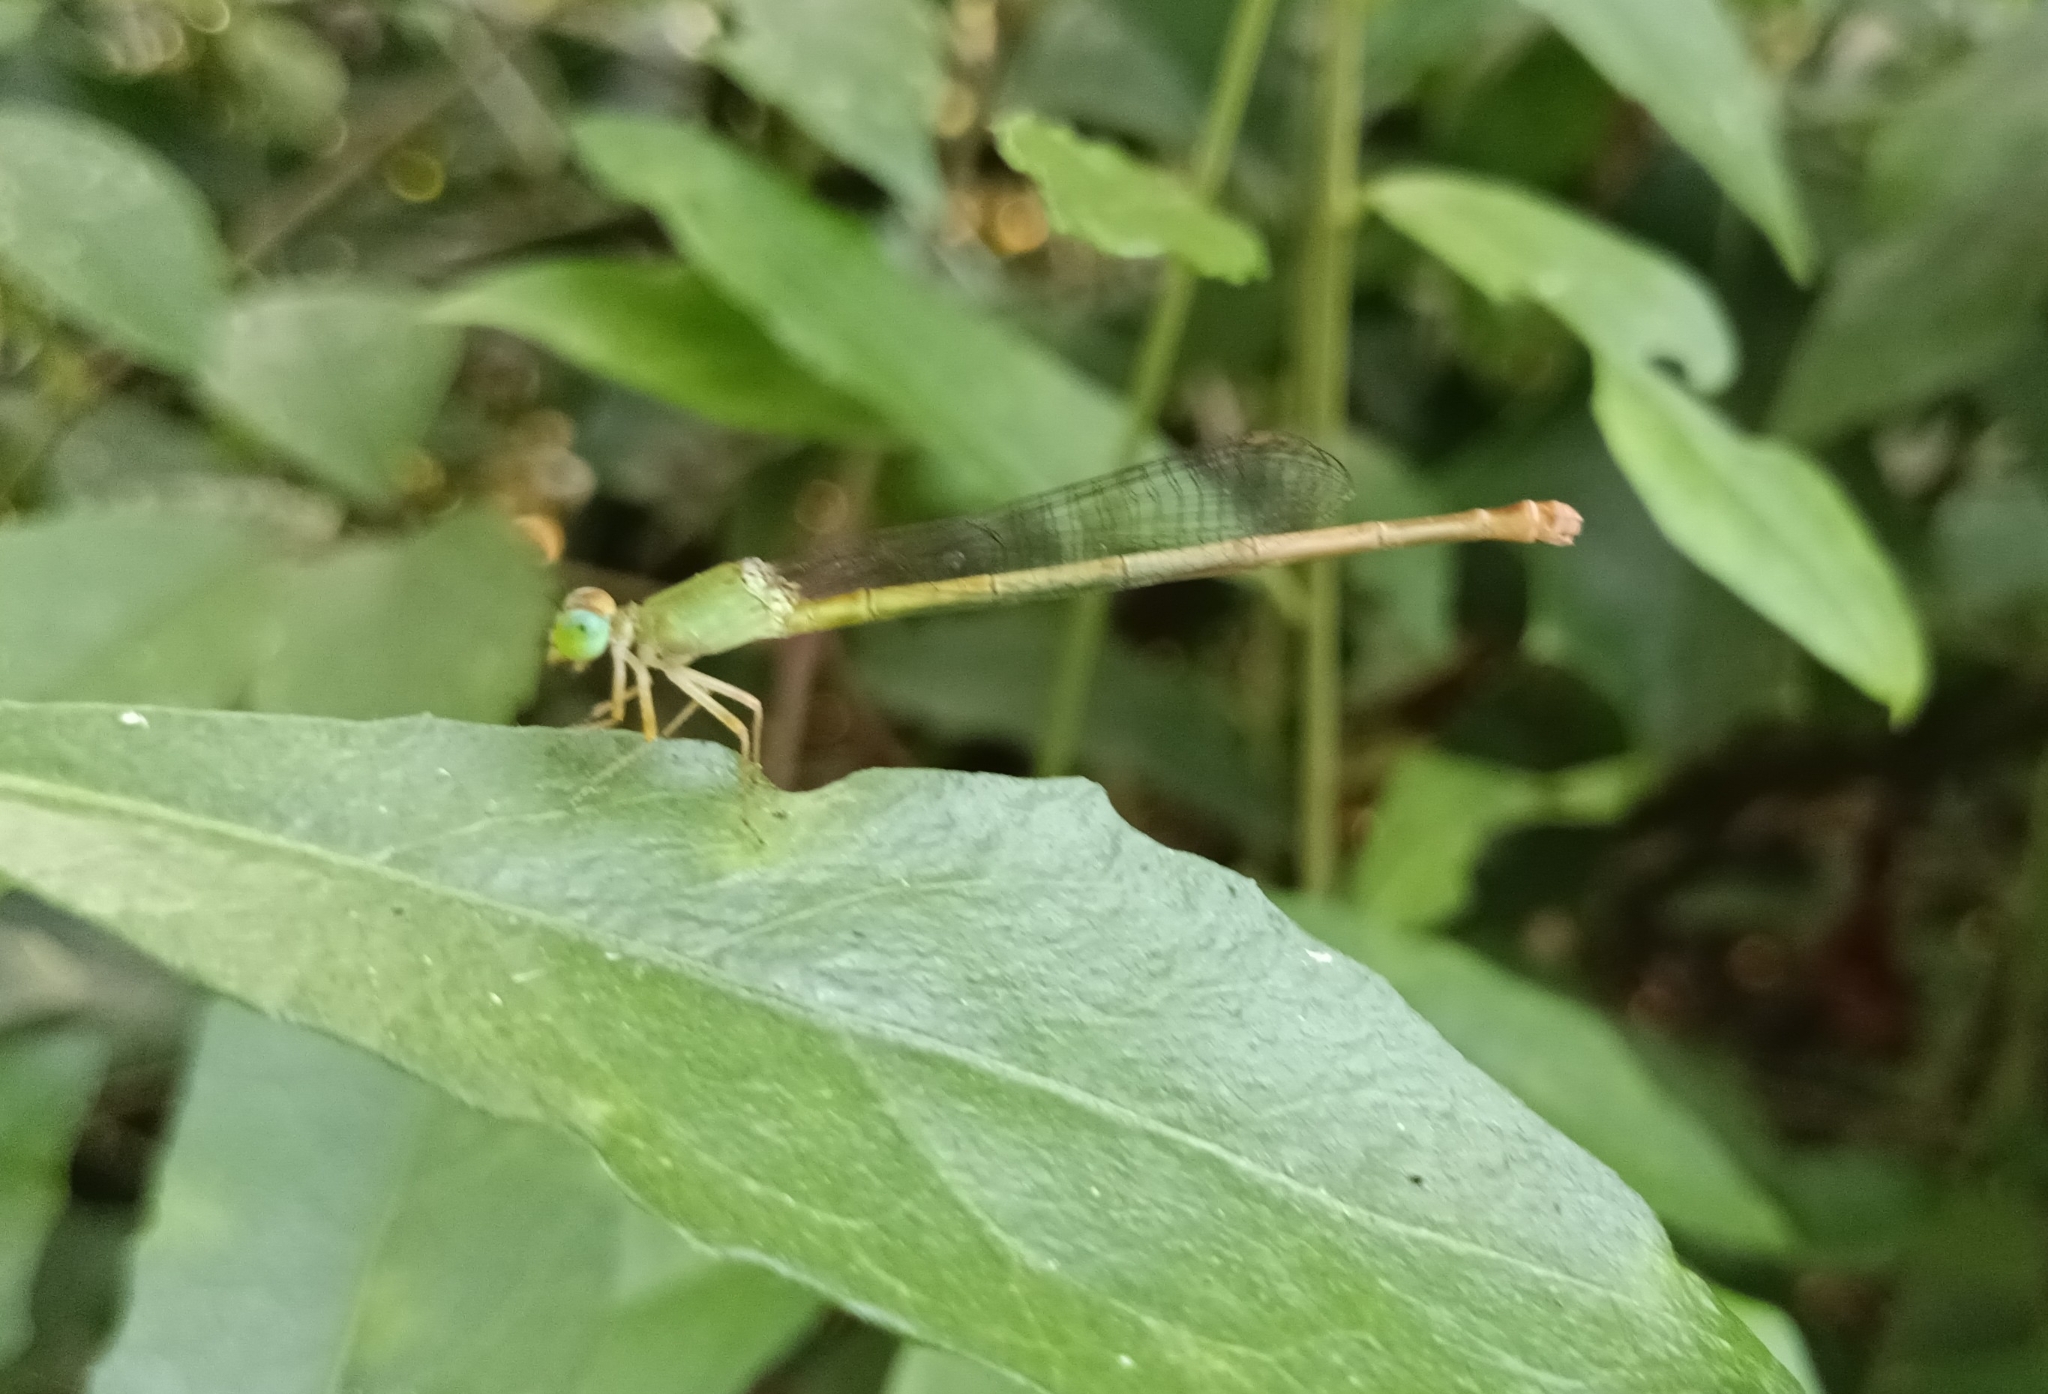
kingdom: Animalia
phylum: Arthropoda
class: Insecta
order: Odonata
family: Coenagrionidae
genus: Ceriagrion
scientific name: Ceriagrion coromandelianum
